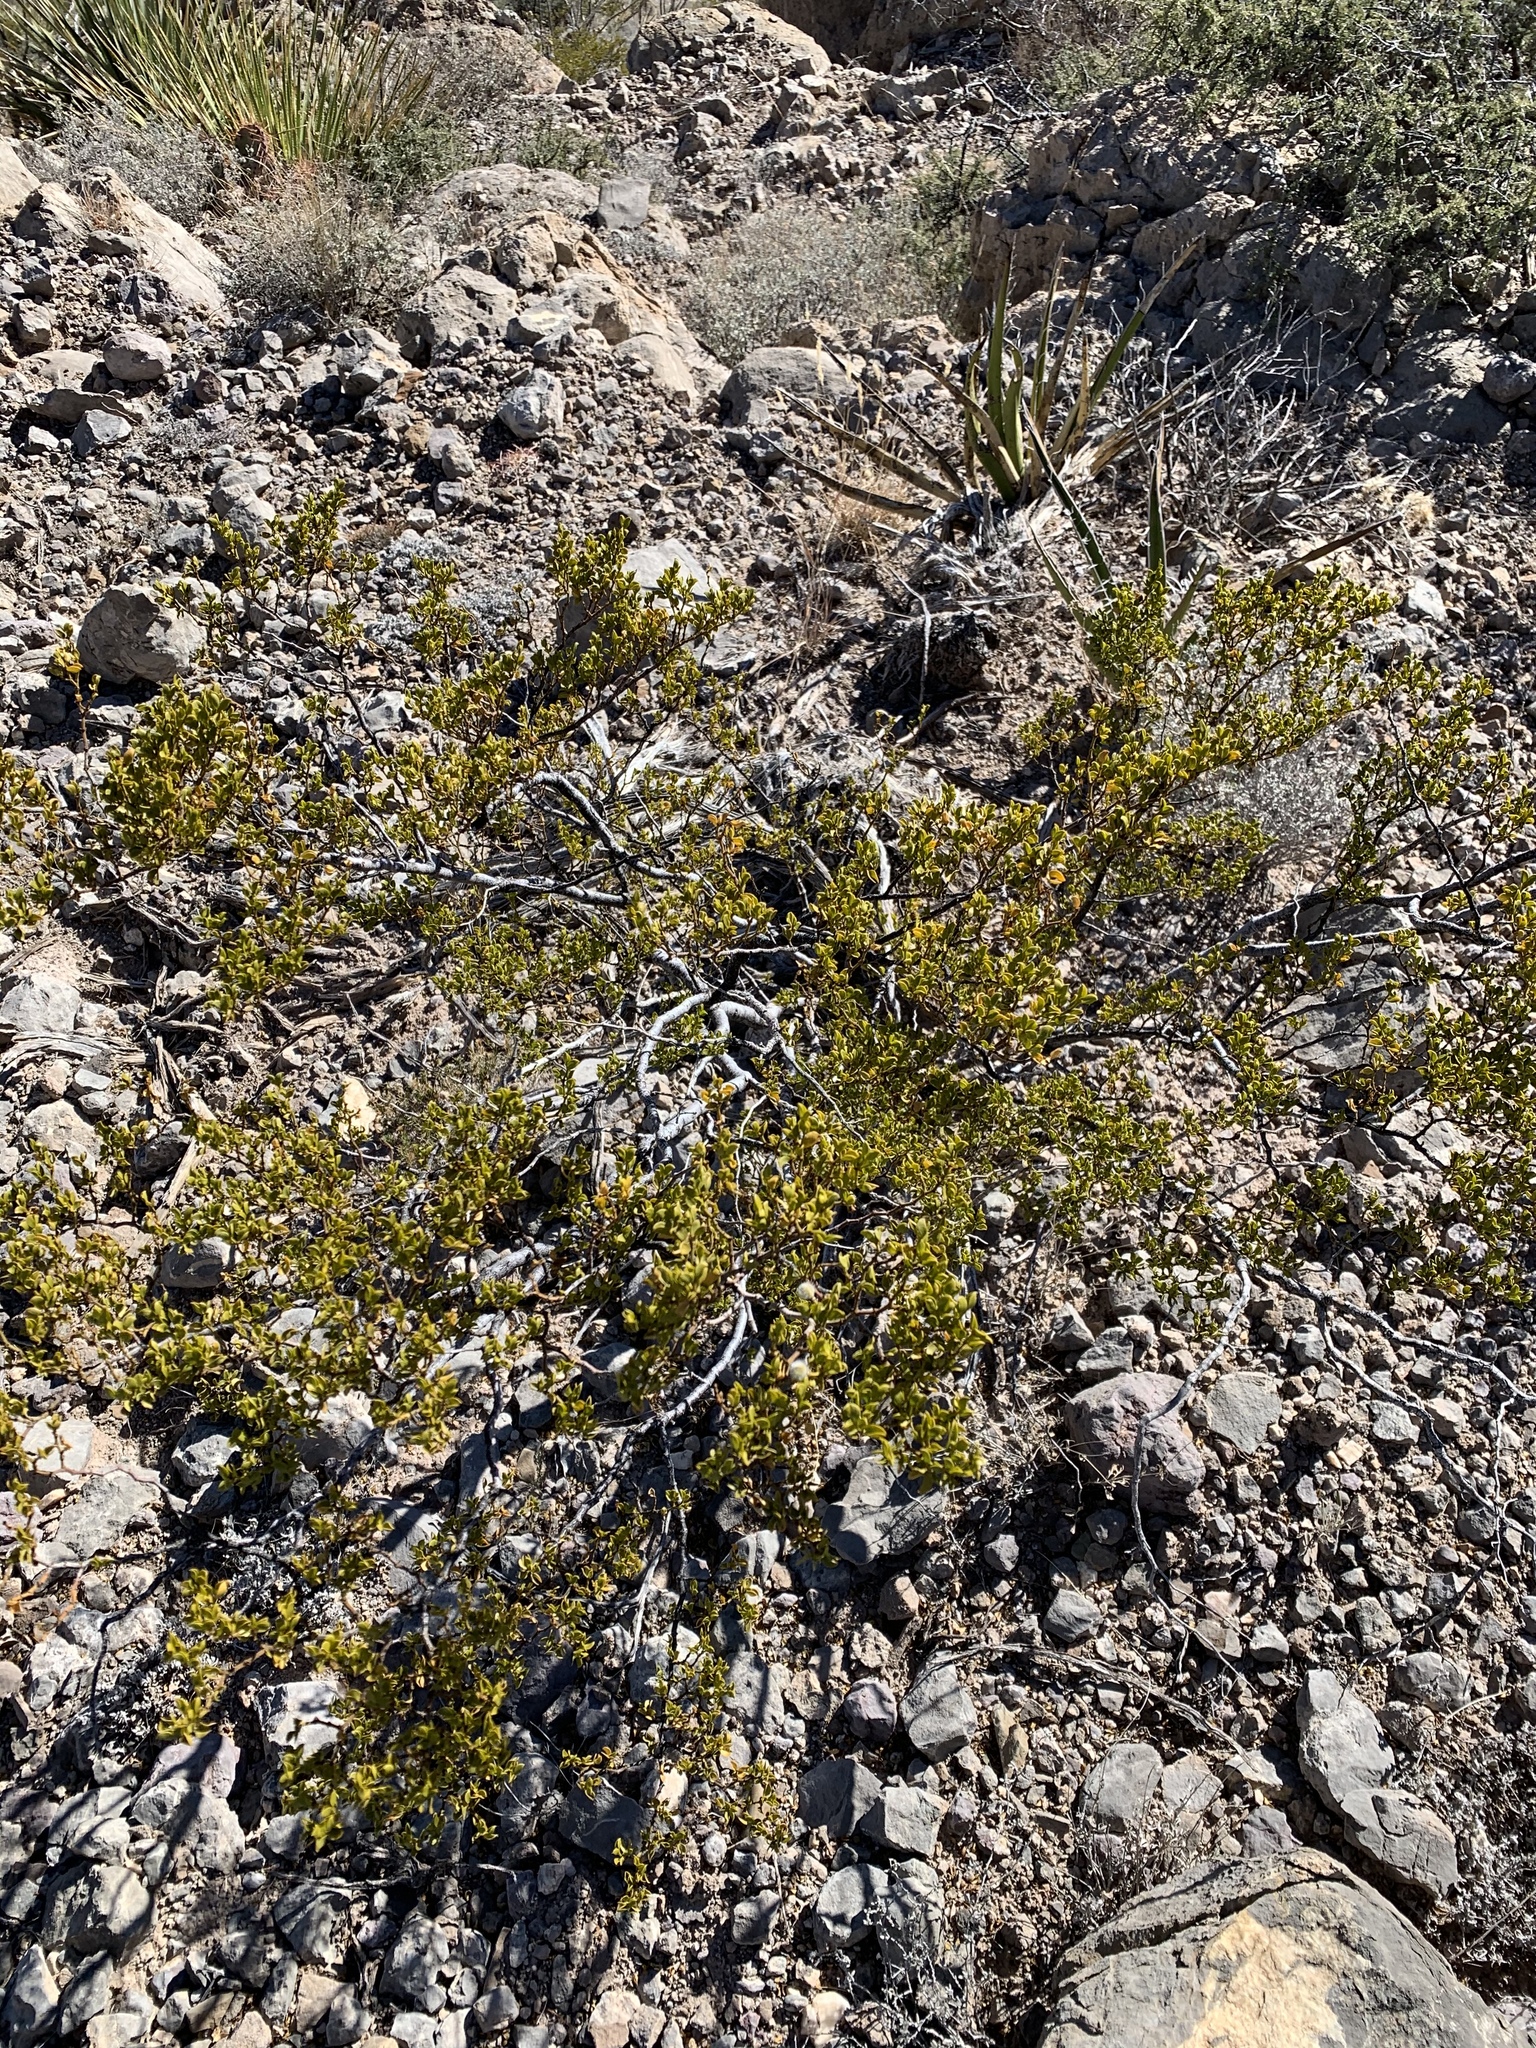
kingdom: Plantae
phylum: Tracheophyta
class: Magnoliopsida
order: Zygophyllales
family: Zygophyllaceae
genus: Larrea
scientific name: Larrea tridentata
